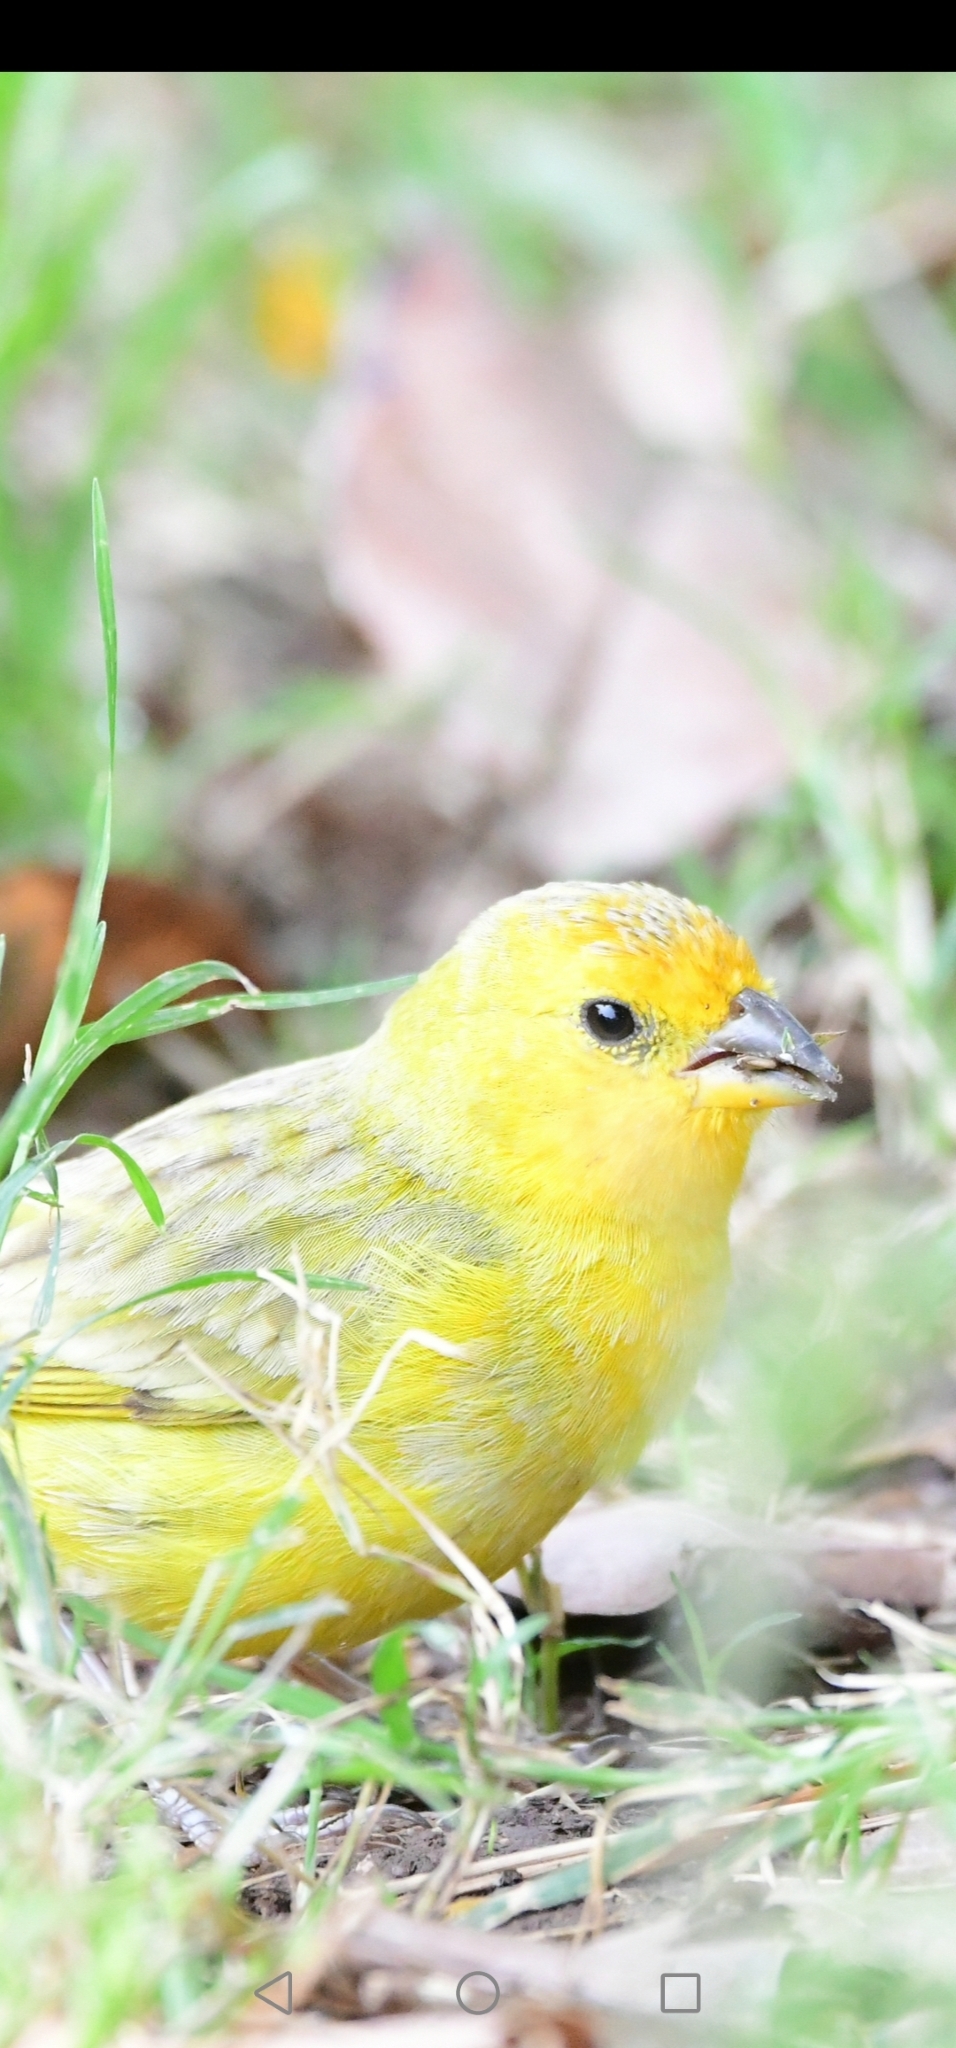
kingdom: Animalia
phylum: Chordata
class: Aves
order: Passeriformes
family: Thraupidae
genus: Sicalis
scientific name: Sicalis flaveola
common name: Saffron finch
